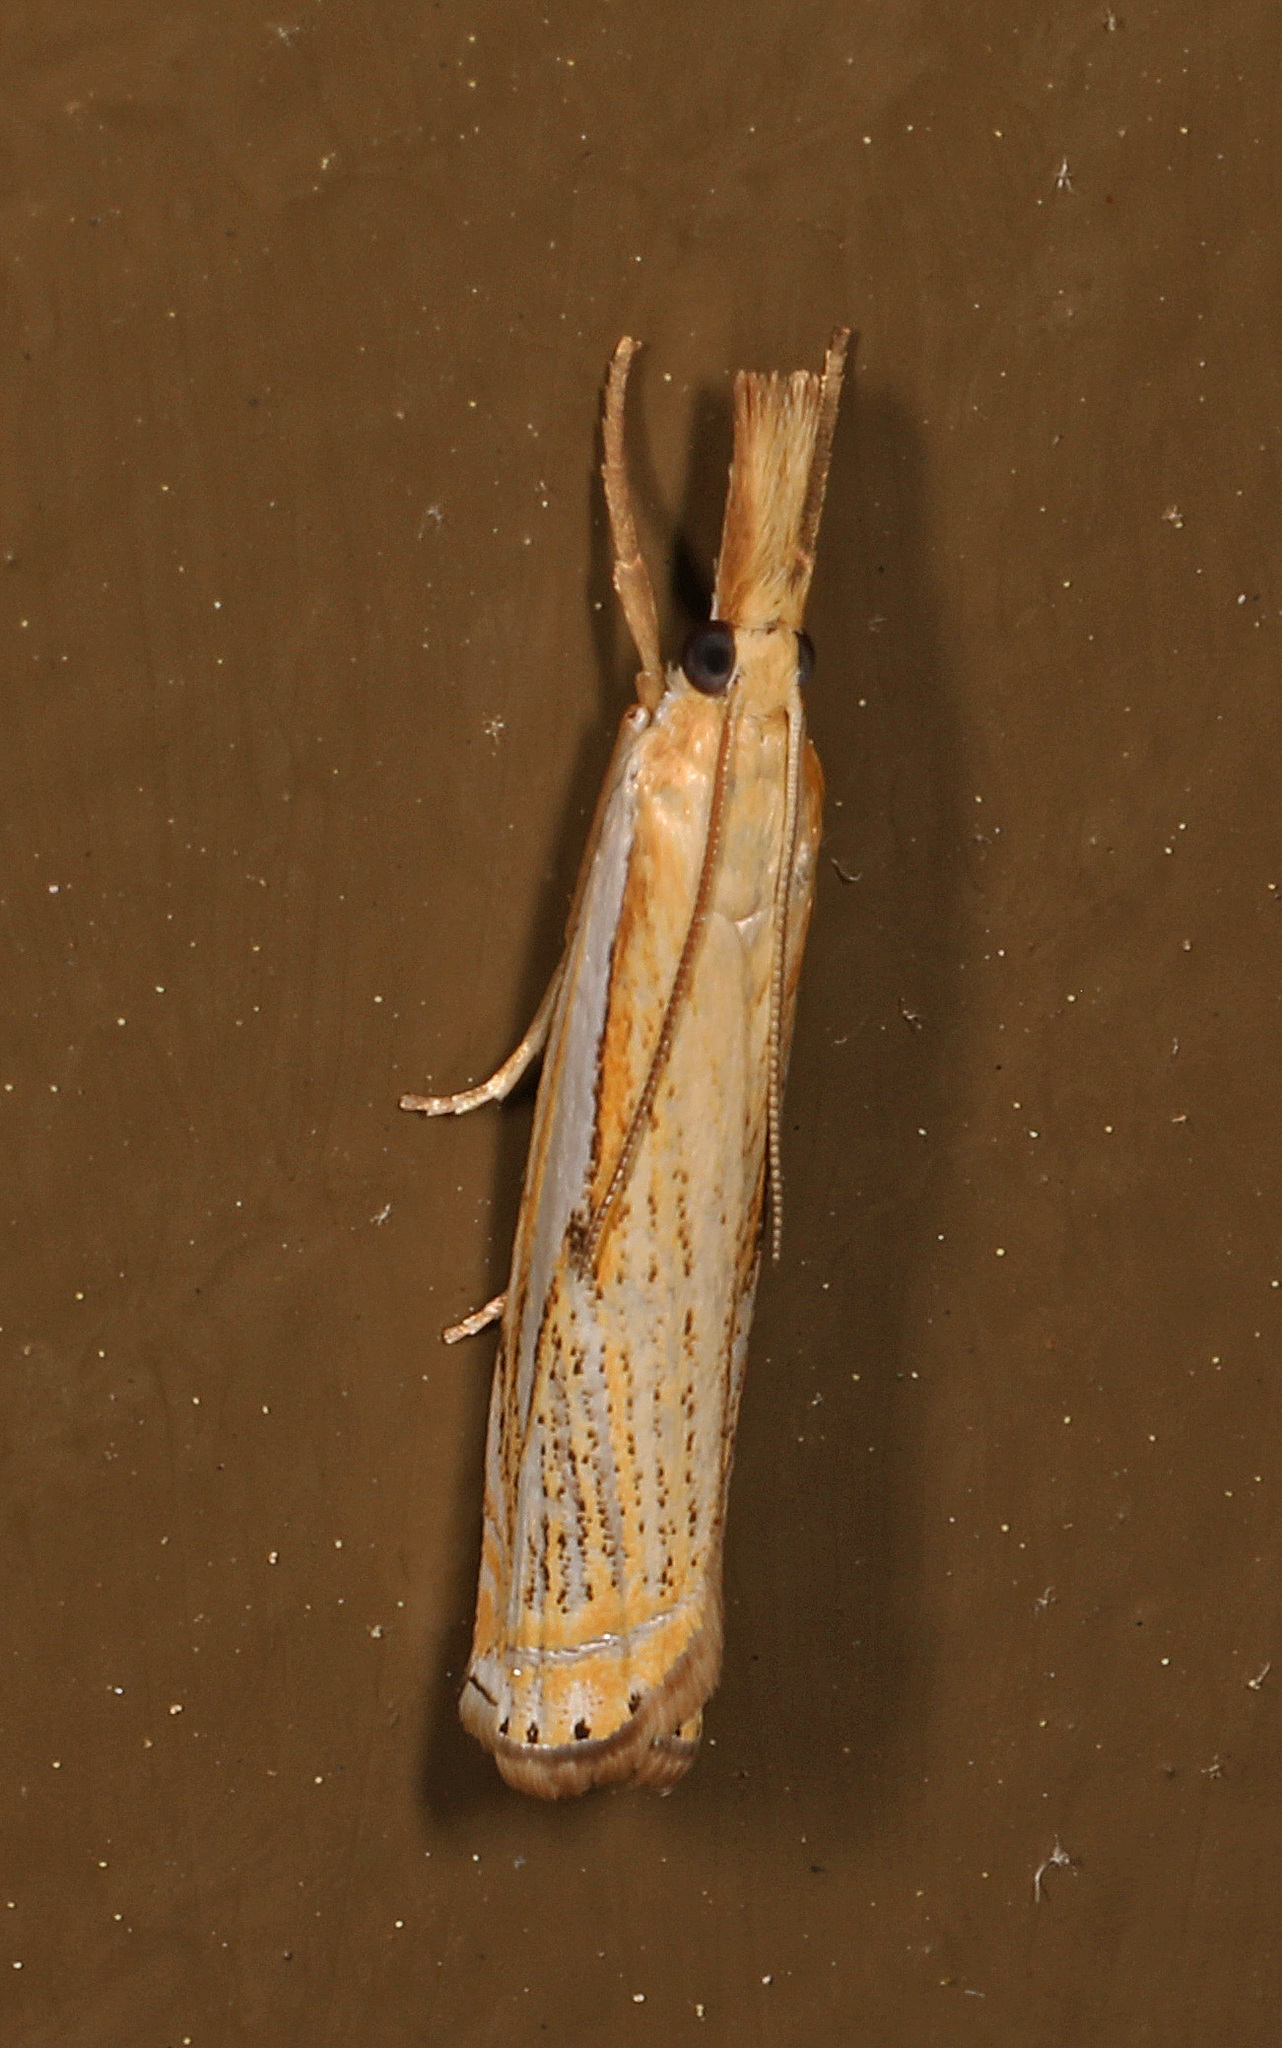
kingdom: Animalia
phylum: Arthropoda
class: Insecta
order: Lepidoptera
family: Crambidae
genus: Crambus
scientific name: Crambus saltuellus
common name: Pasture grass-veneer
